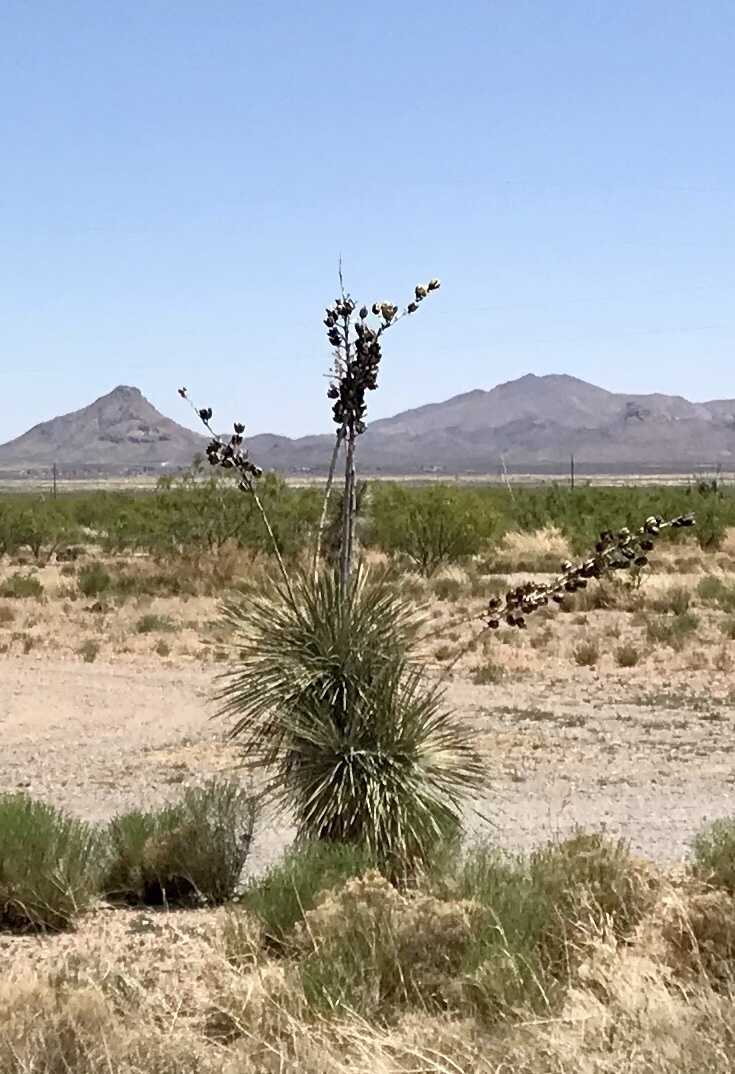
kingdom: Plantae
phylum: Tracheophyta
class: Liliopsida
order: Asparagales
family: Asparagaceae
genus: Yucca
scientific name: Yucca elata
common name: Palmella
